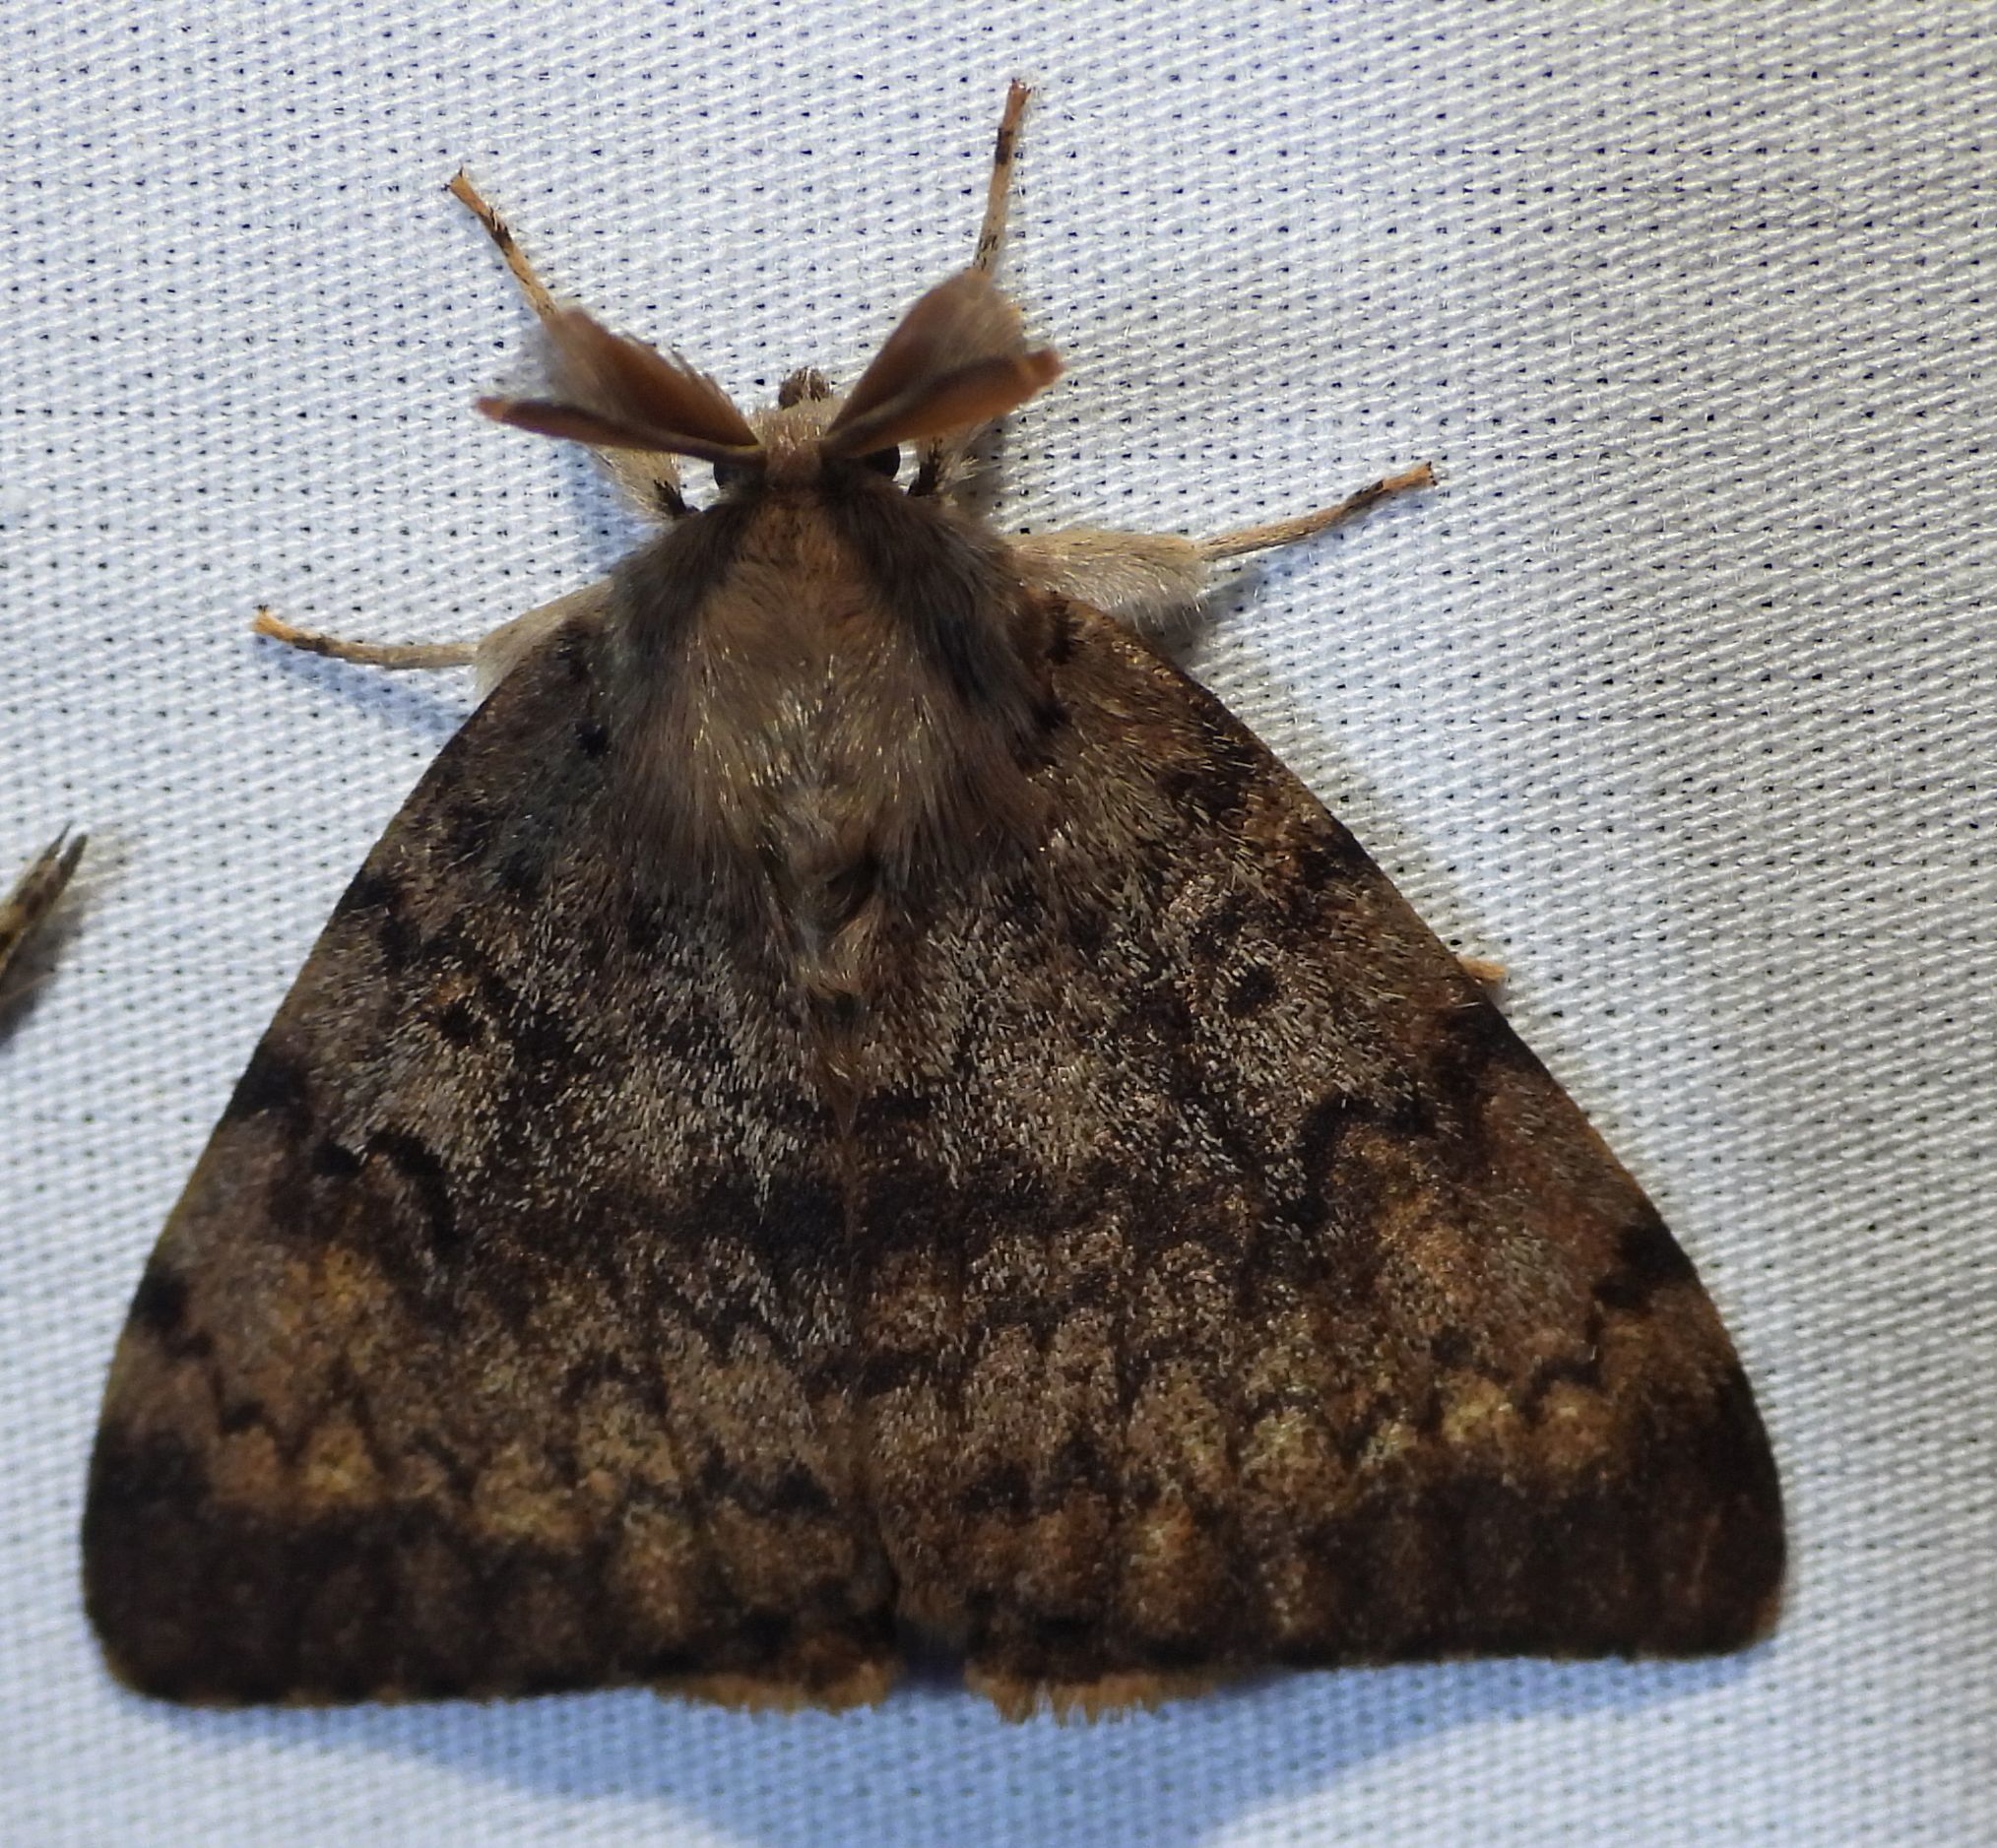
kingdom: Animalia
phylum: Arthropoda
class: Insecta
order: Lepidoptera
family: Erebidae
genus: Lymantria
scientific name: Lymantria dispar
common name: Gypsy moth
